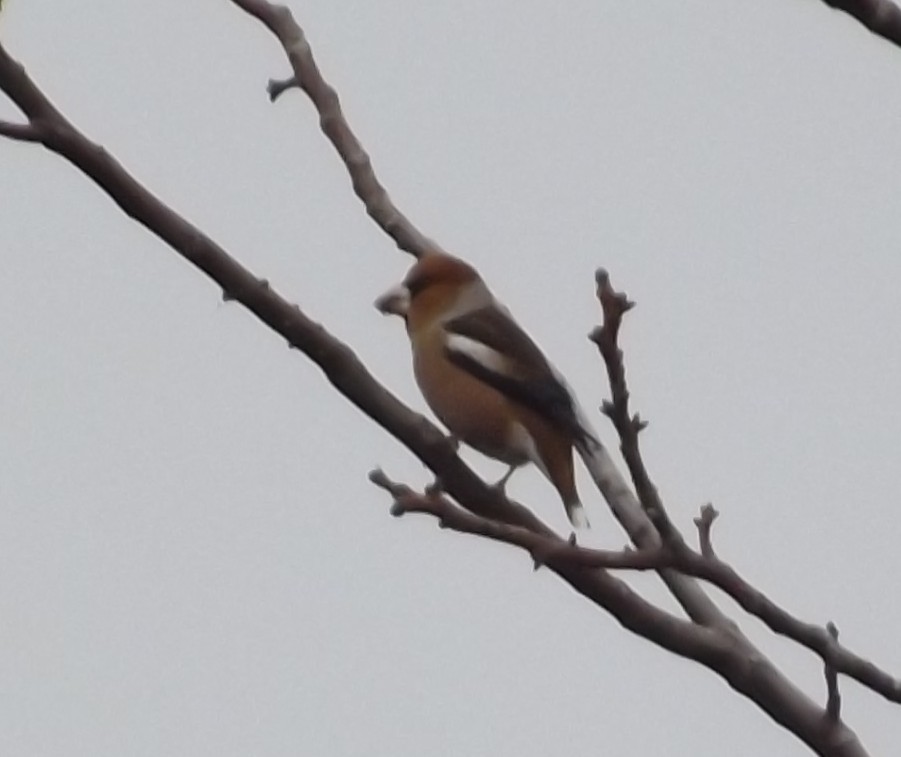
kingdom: Animalia
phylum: Chordata
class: Aves
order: Passeriformes
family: Fringillidae
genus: Coccothraustes
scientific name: Coccothraustes coccothraustes
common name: Hawfinch
